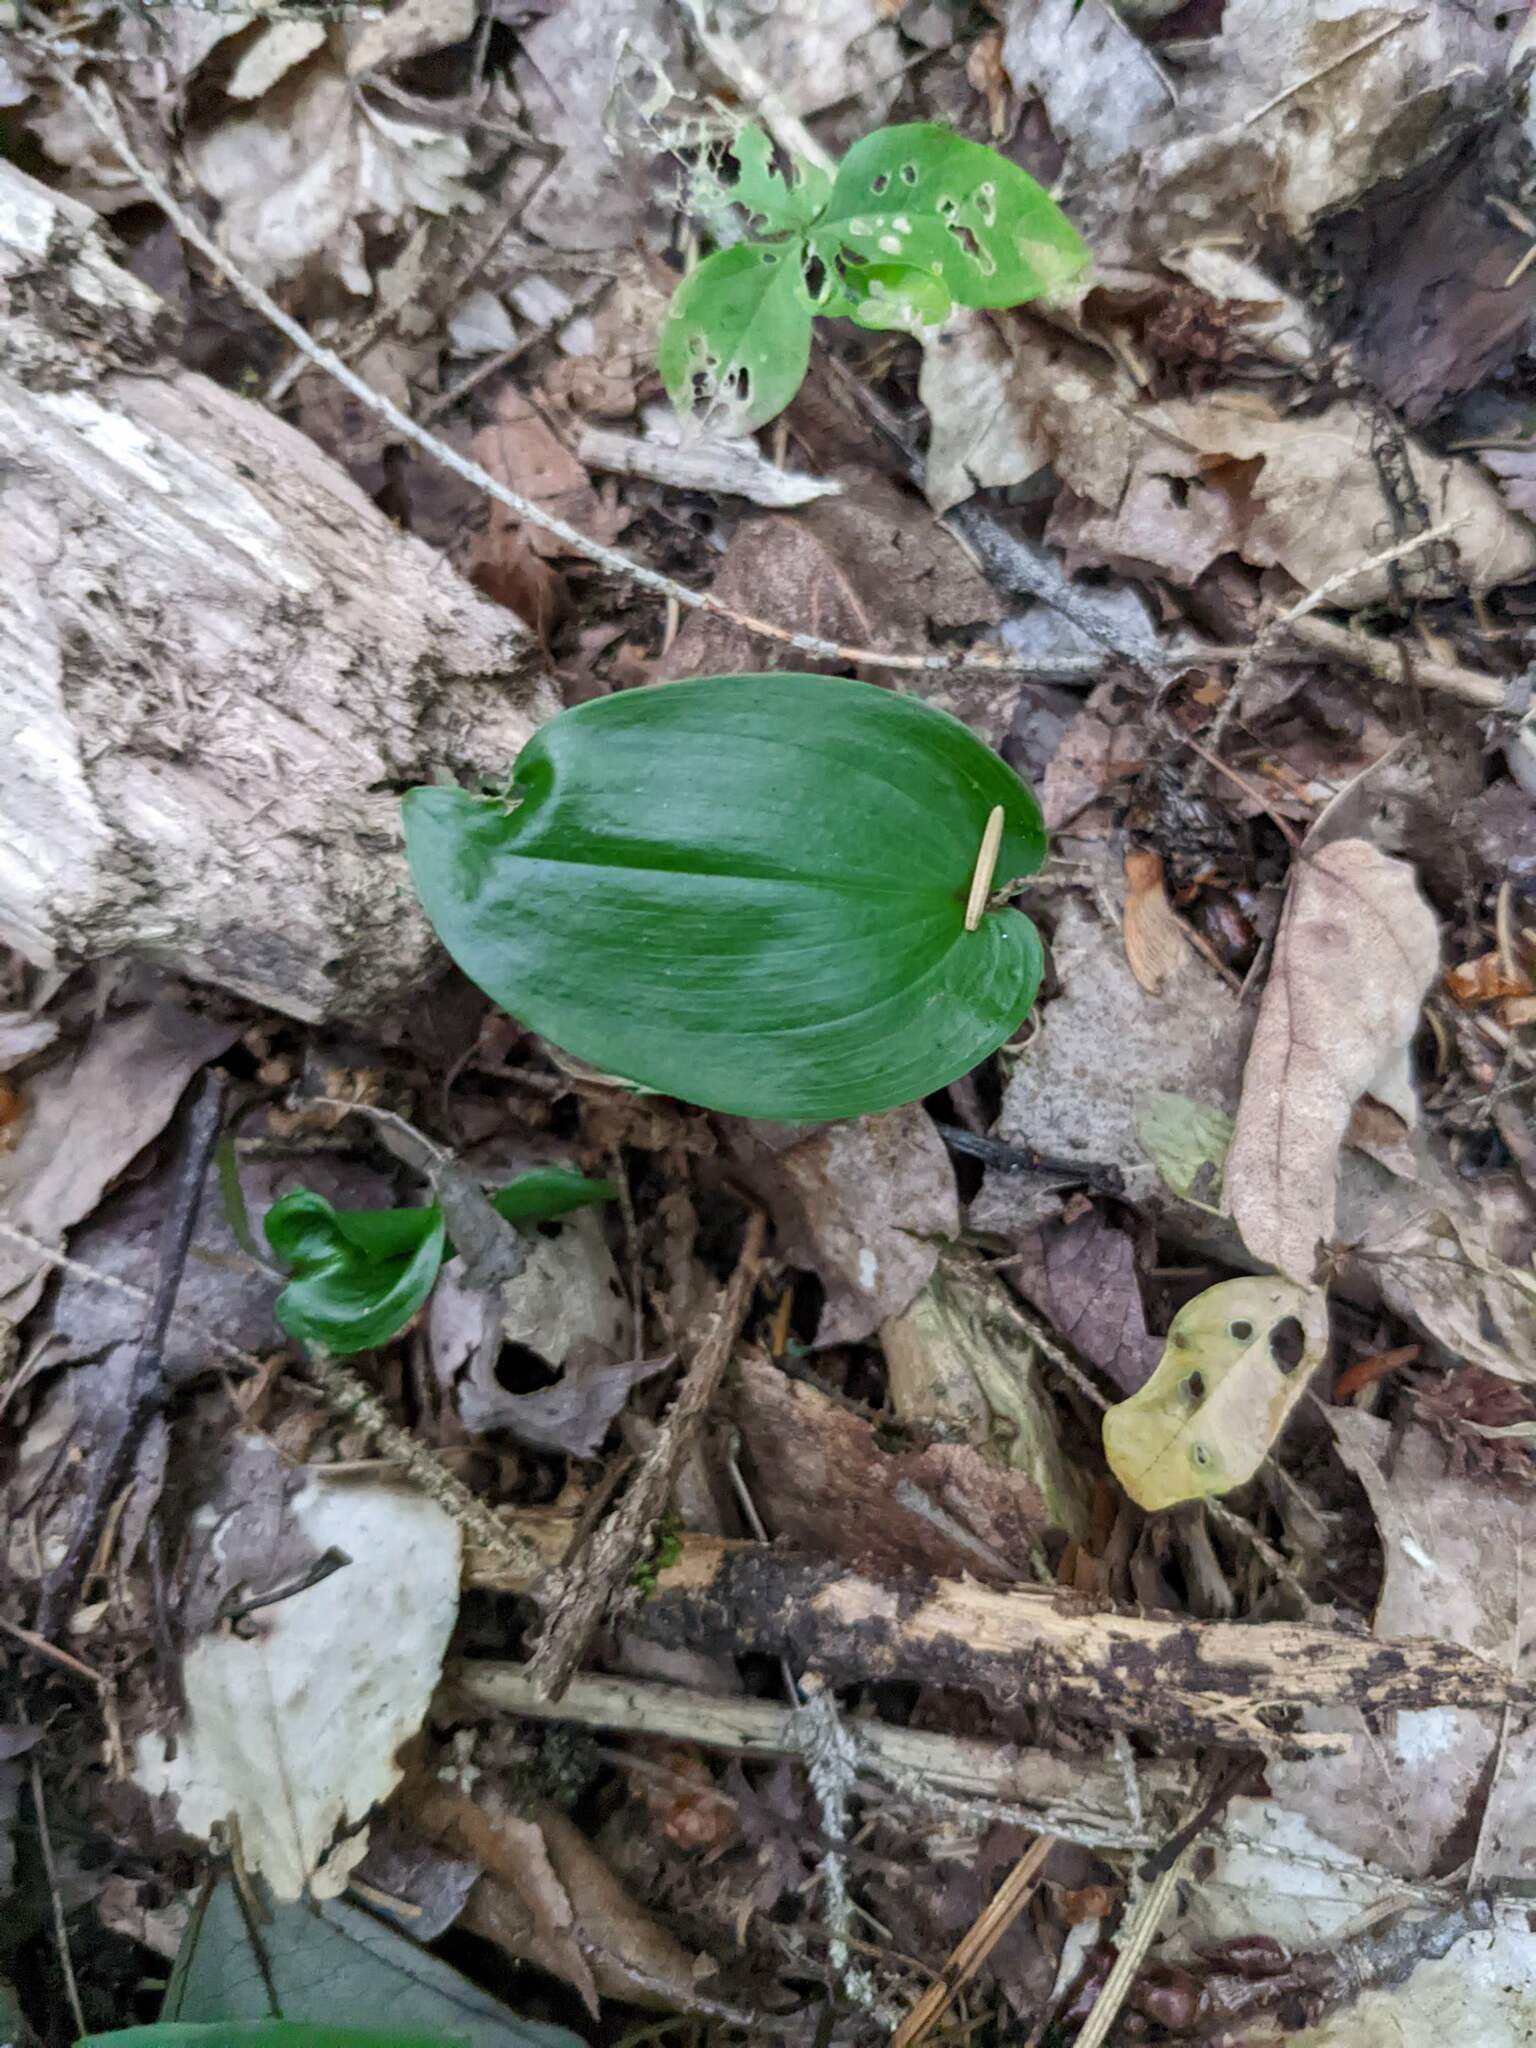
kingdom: Plantae
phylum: Tracheophyta
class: Liliopsida
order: Asparagales
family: Asparagaceae
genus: Maianthemum
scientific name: Maianthemum canadense
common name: False lily-of-the-valley
